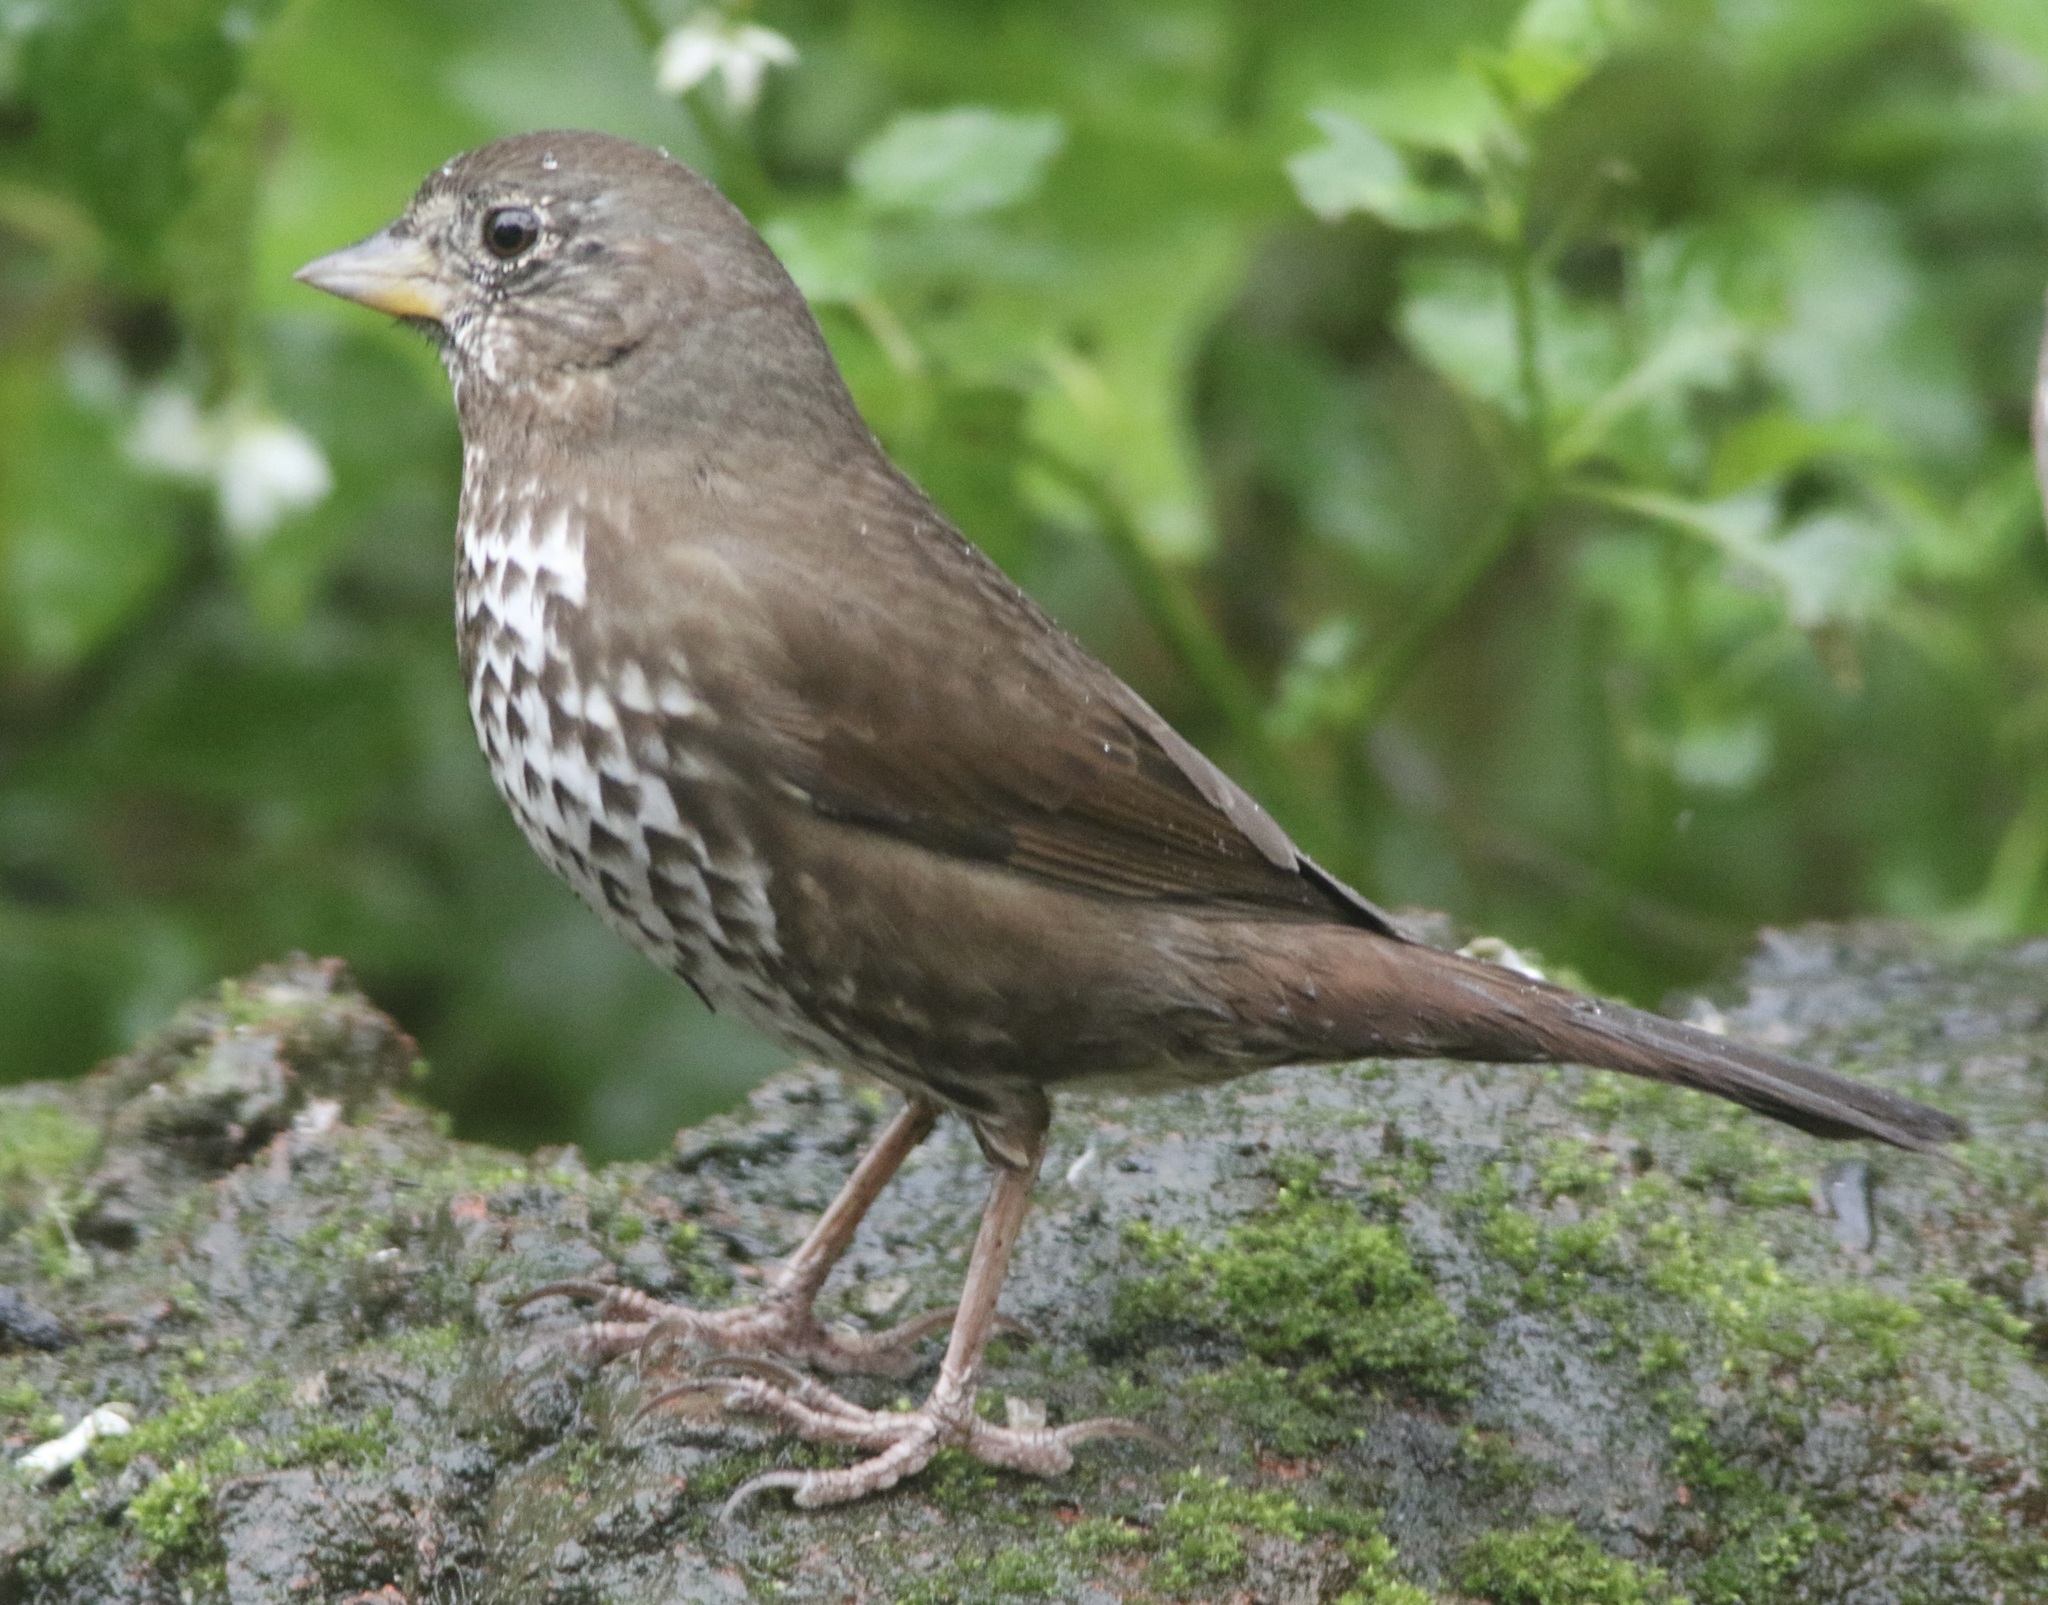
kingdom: Animalia
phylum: Chordata
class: Aves
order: Passeriformes
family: Passerellidae
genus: Passerella
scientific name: Passerella iliaca
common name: Fox sparrow
